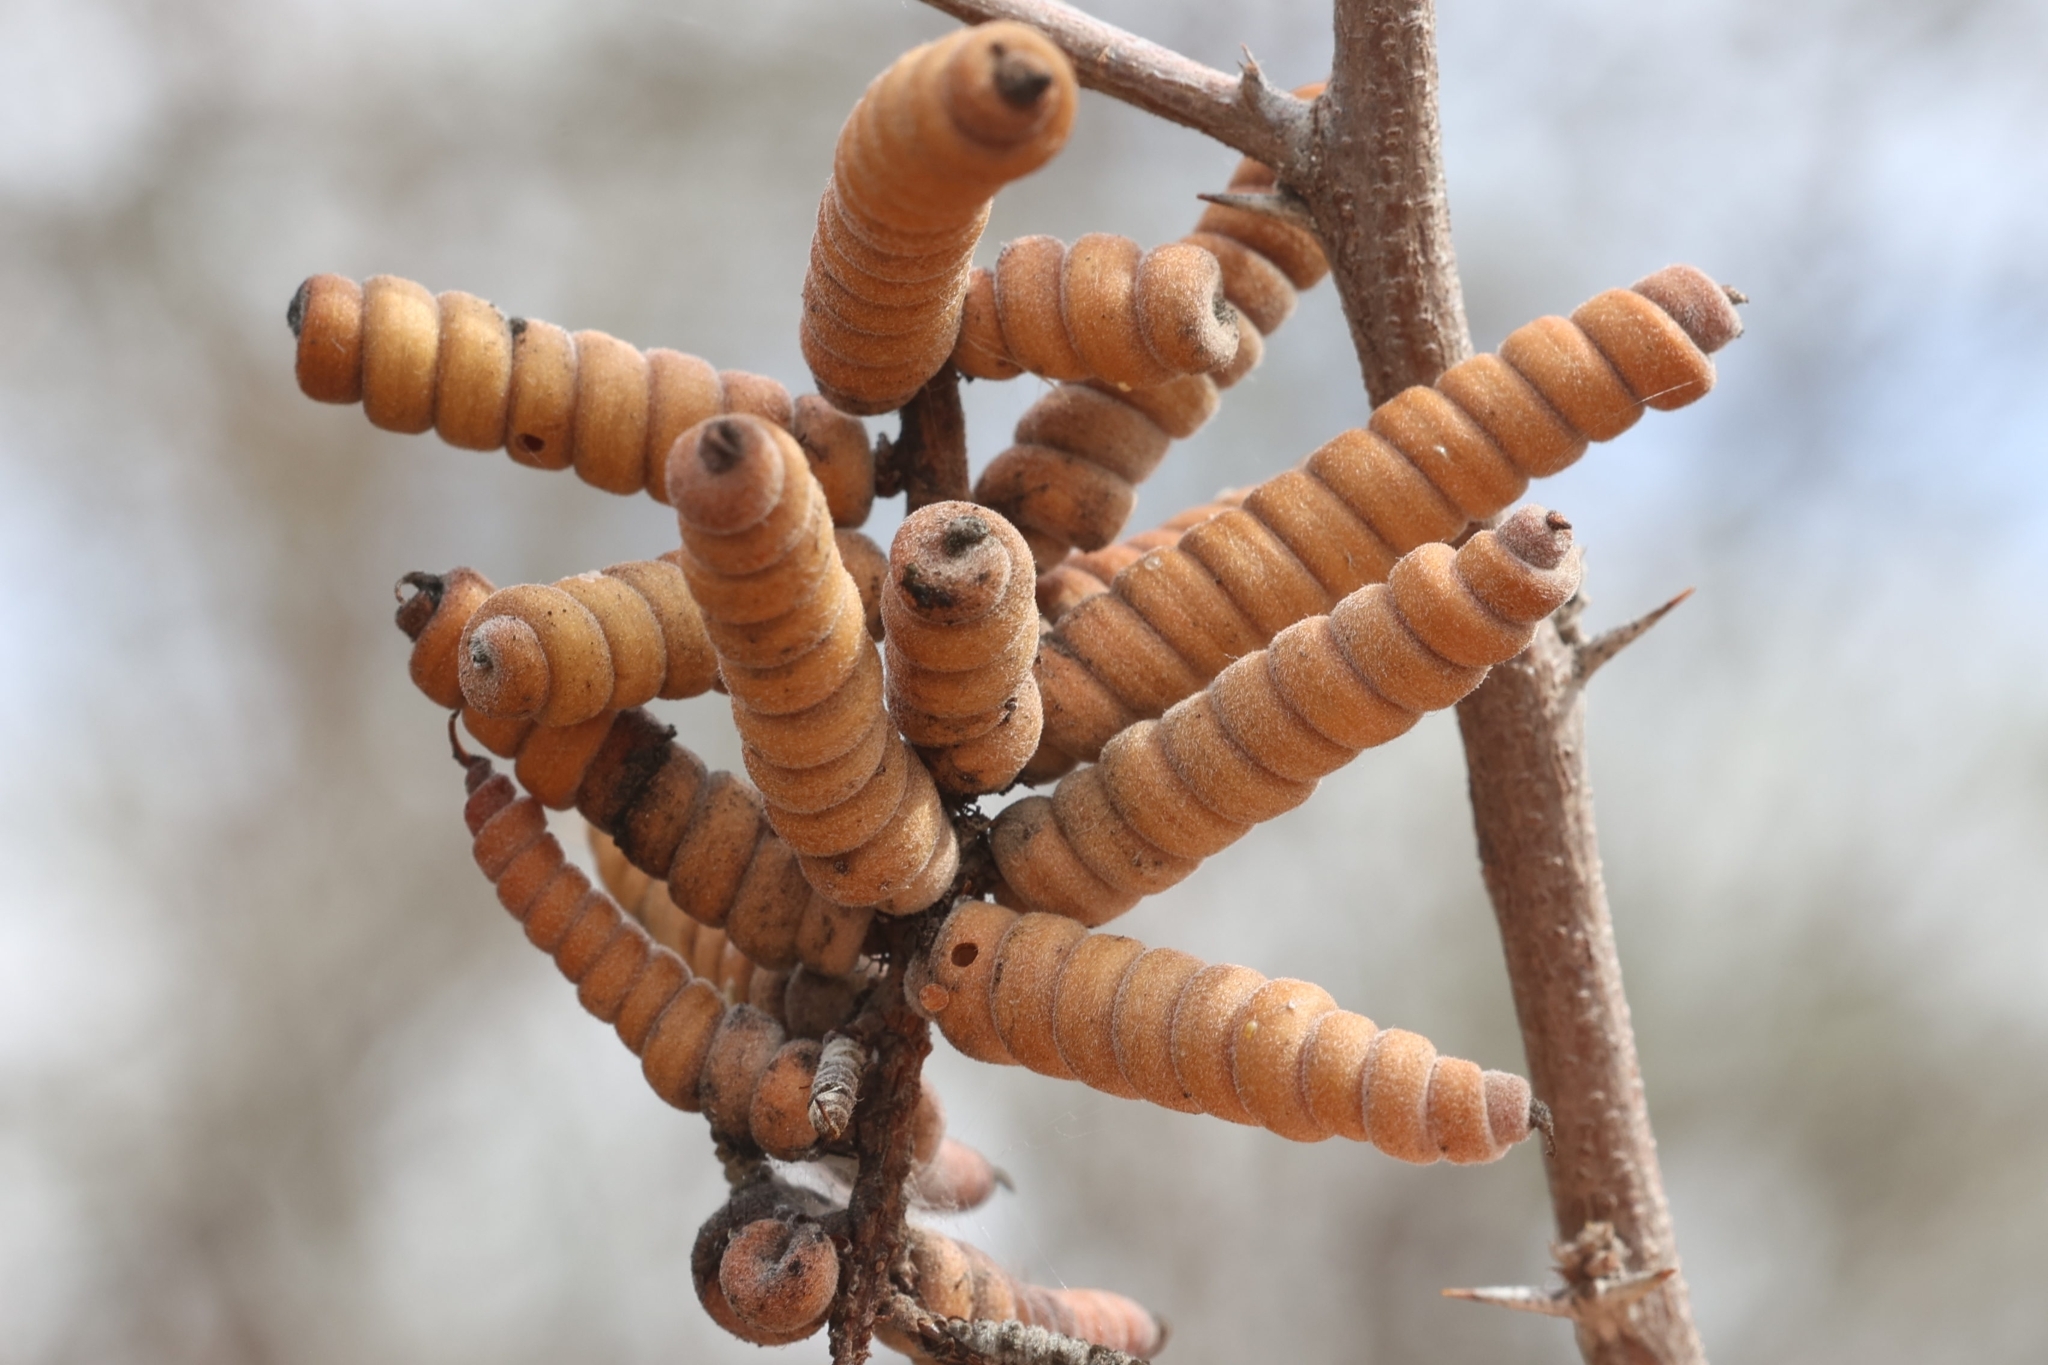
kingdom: Plantae
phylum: Tracheophyta
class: Magnoliopsida
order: Fabales
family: Fabaceae
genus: Prosopis
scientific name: Prosopis pubescens
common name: Screw-bean
